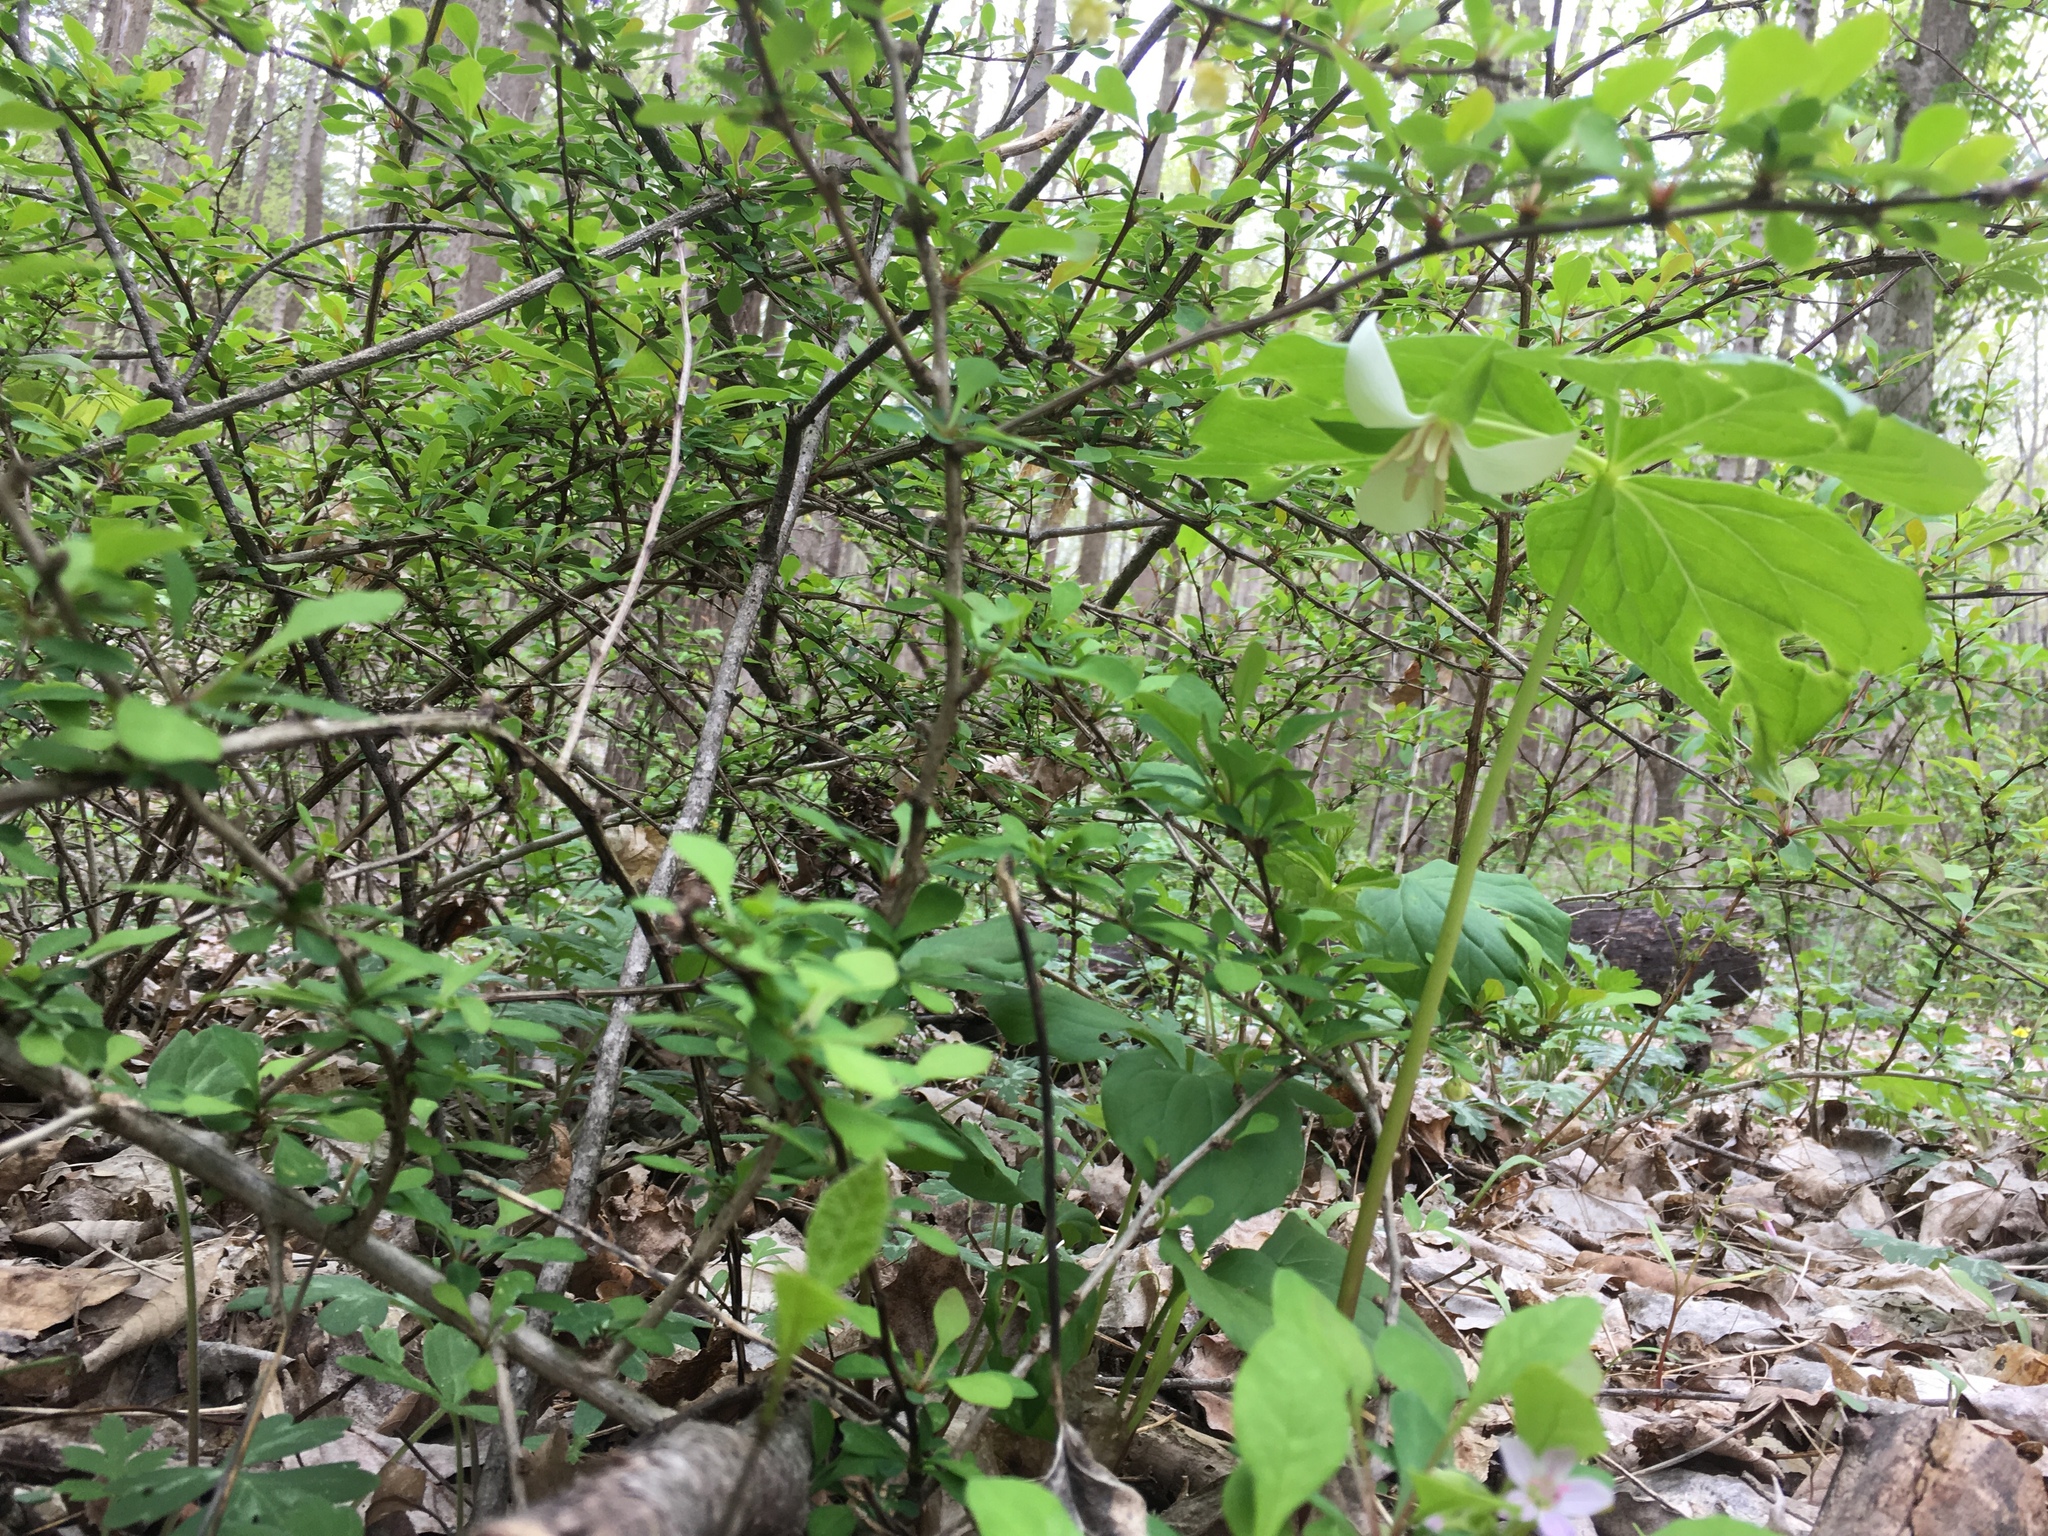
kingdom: Plantae
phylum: Tracheophyta
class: Liliopsida
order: Liliales
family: Melanthiaceae
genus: Trillium
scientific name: Trillium flexipes
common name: Drooping trillium
